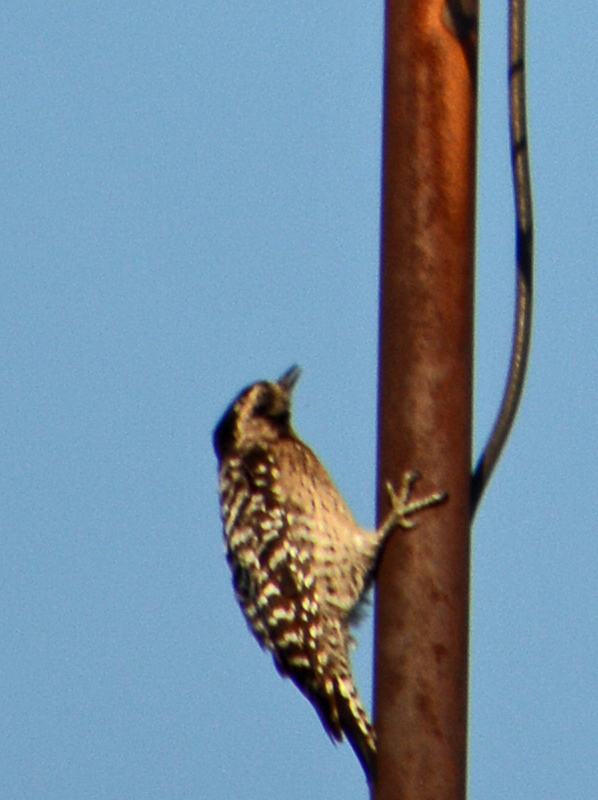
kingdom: Animalia
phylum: Chordata
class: Aves
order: Piciformes
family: Picidae
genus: Dryobates
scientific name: Dryobates scalaris
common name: Ladder-backed woodpecker
